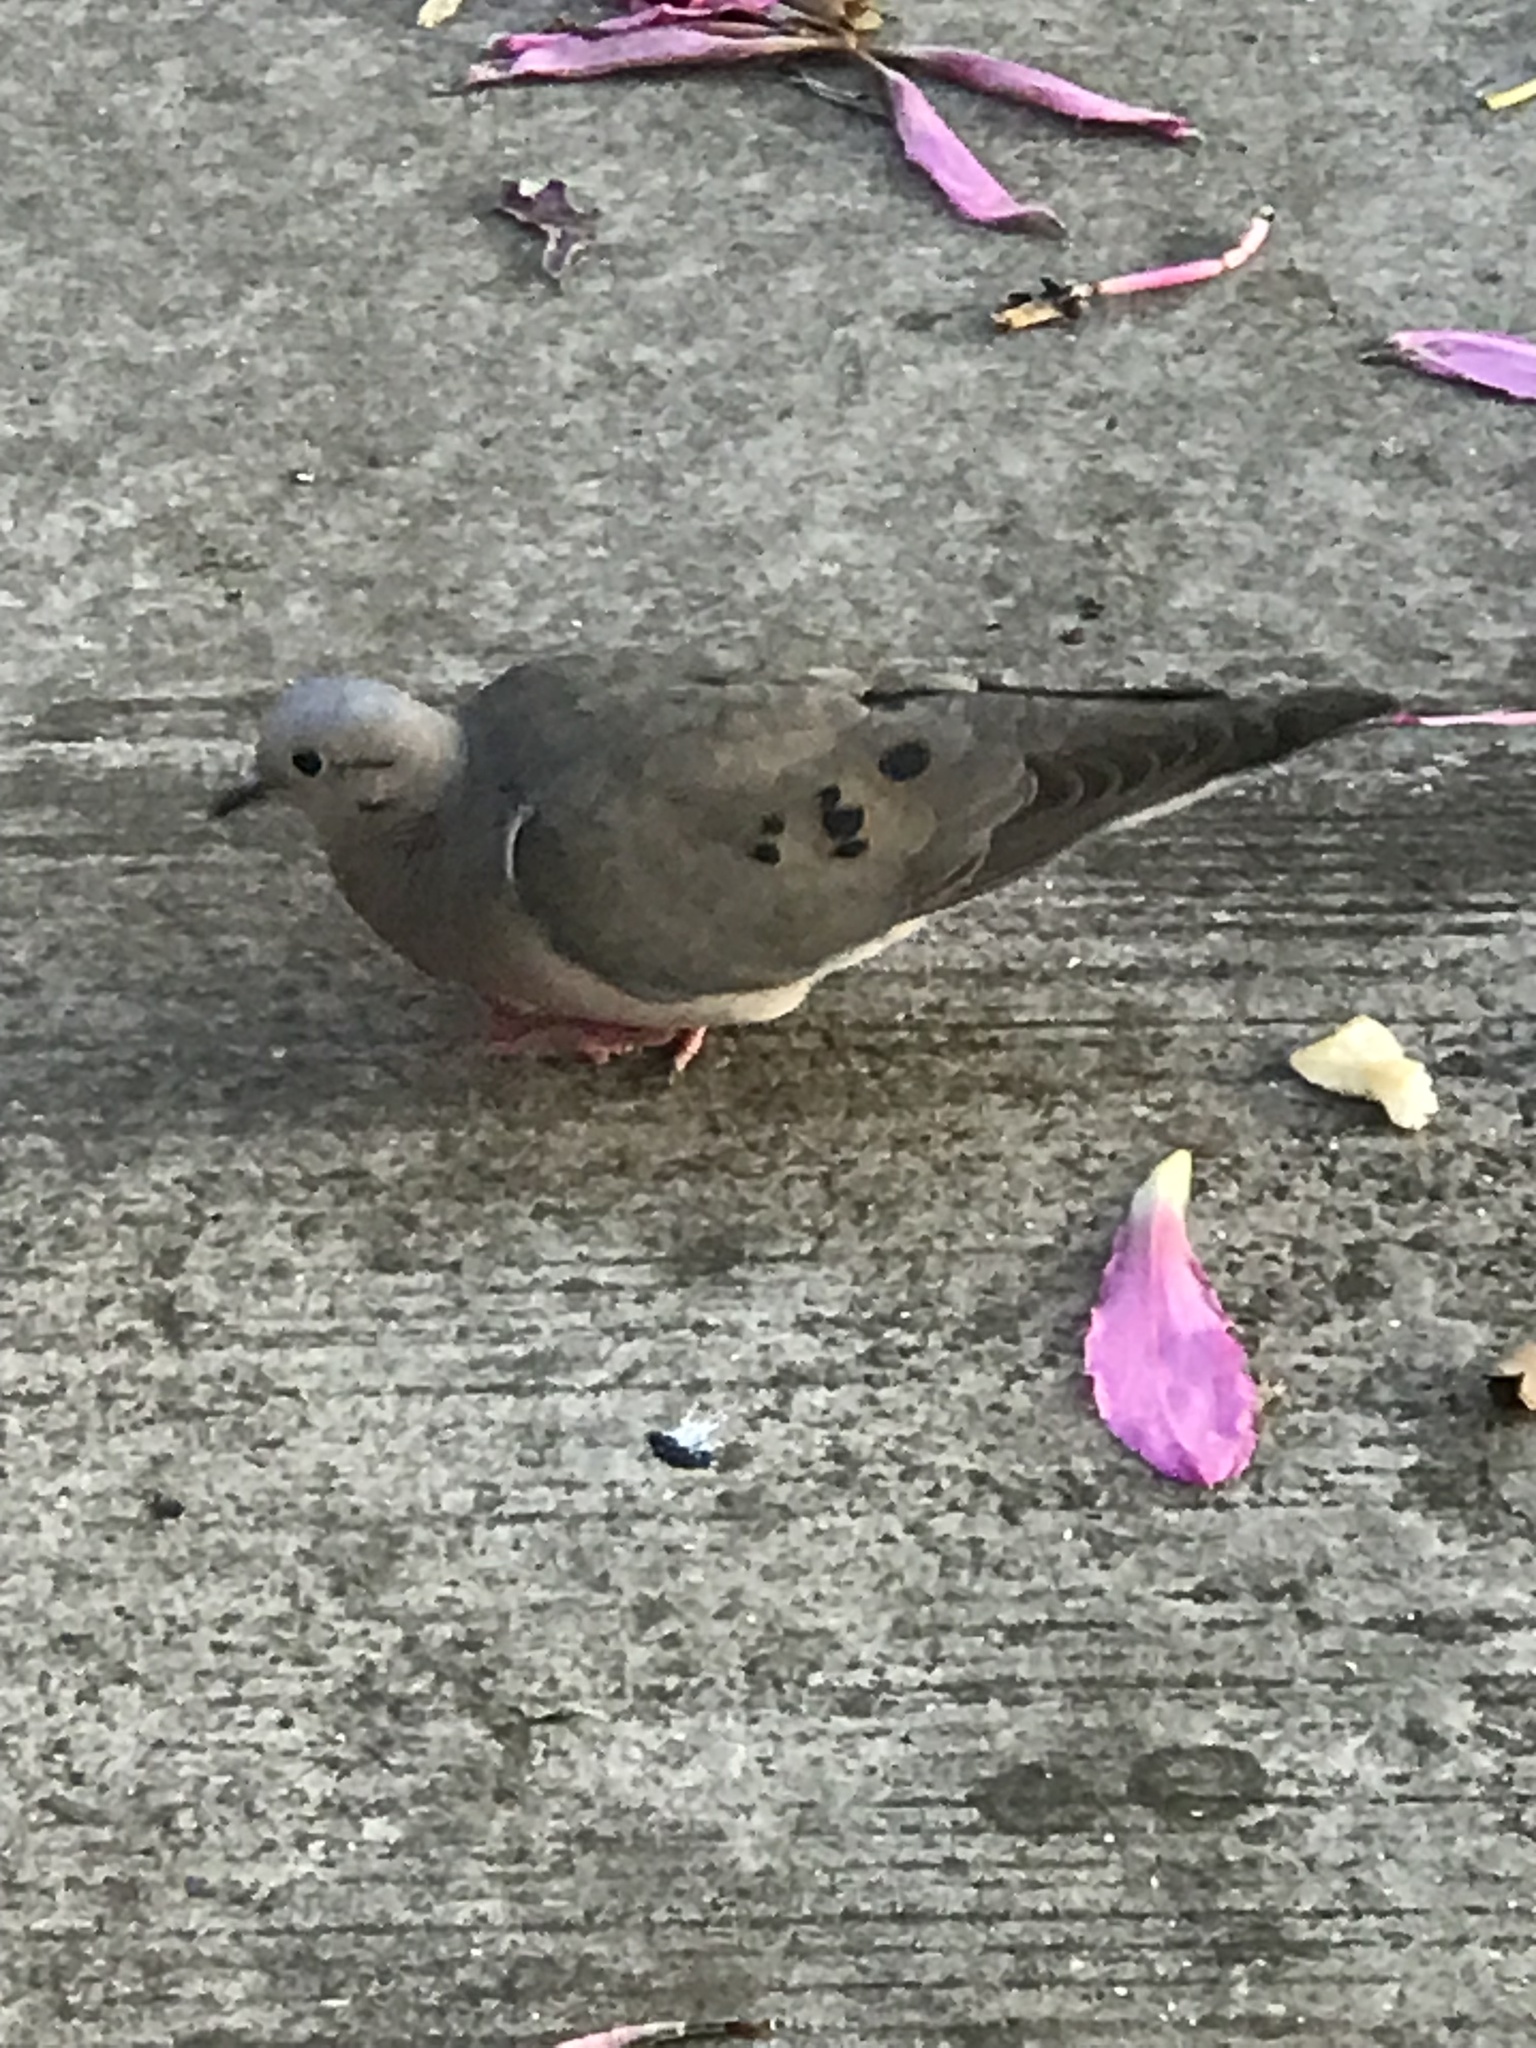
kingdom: Animalia
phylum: Chordata
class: Aves
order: Columbiformes
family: Columbidae
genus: Zenaida
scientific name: Zenaida auriculata
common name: Eared dove
